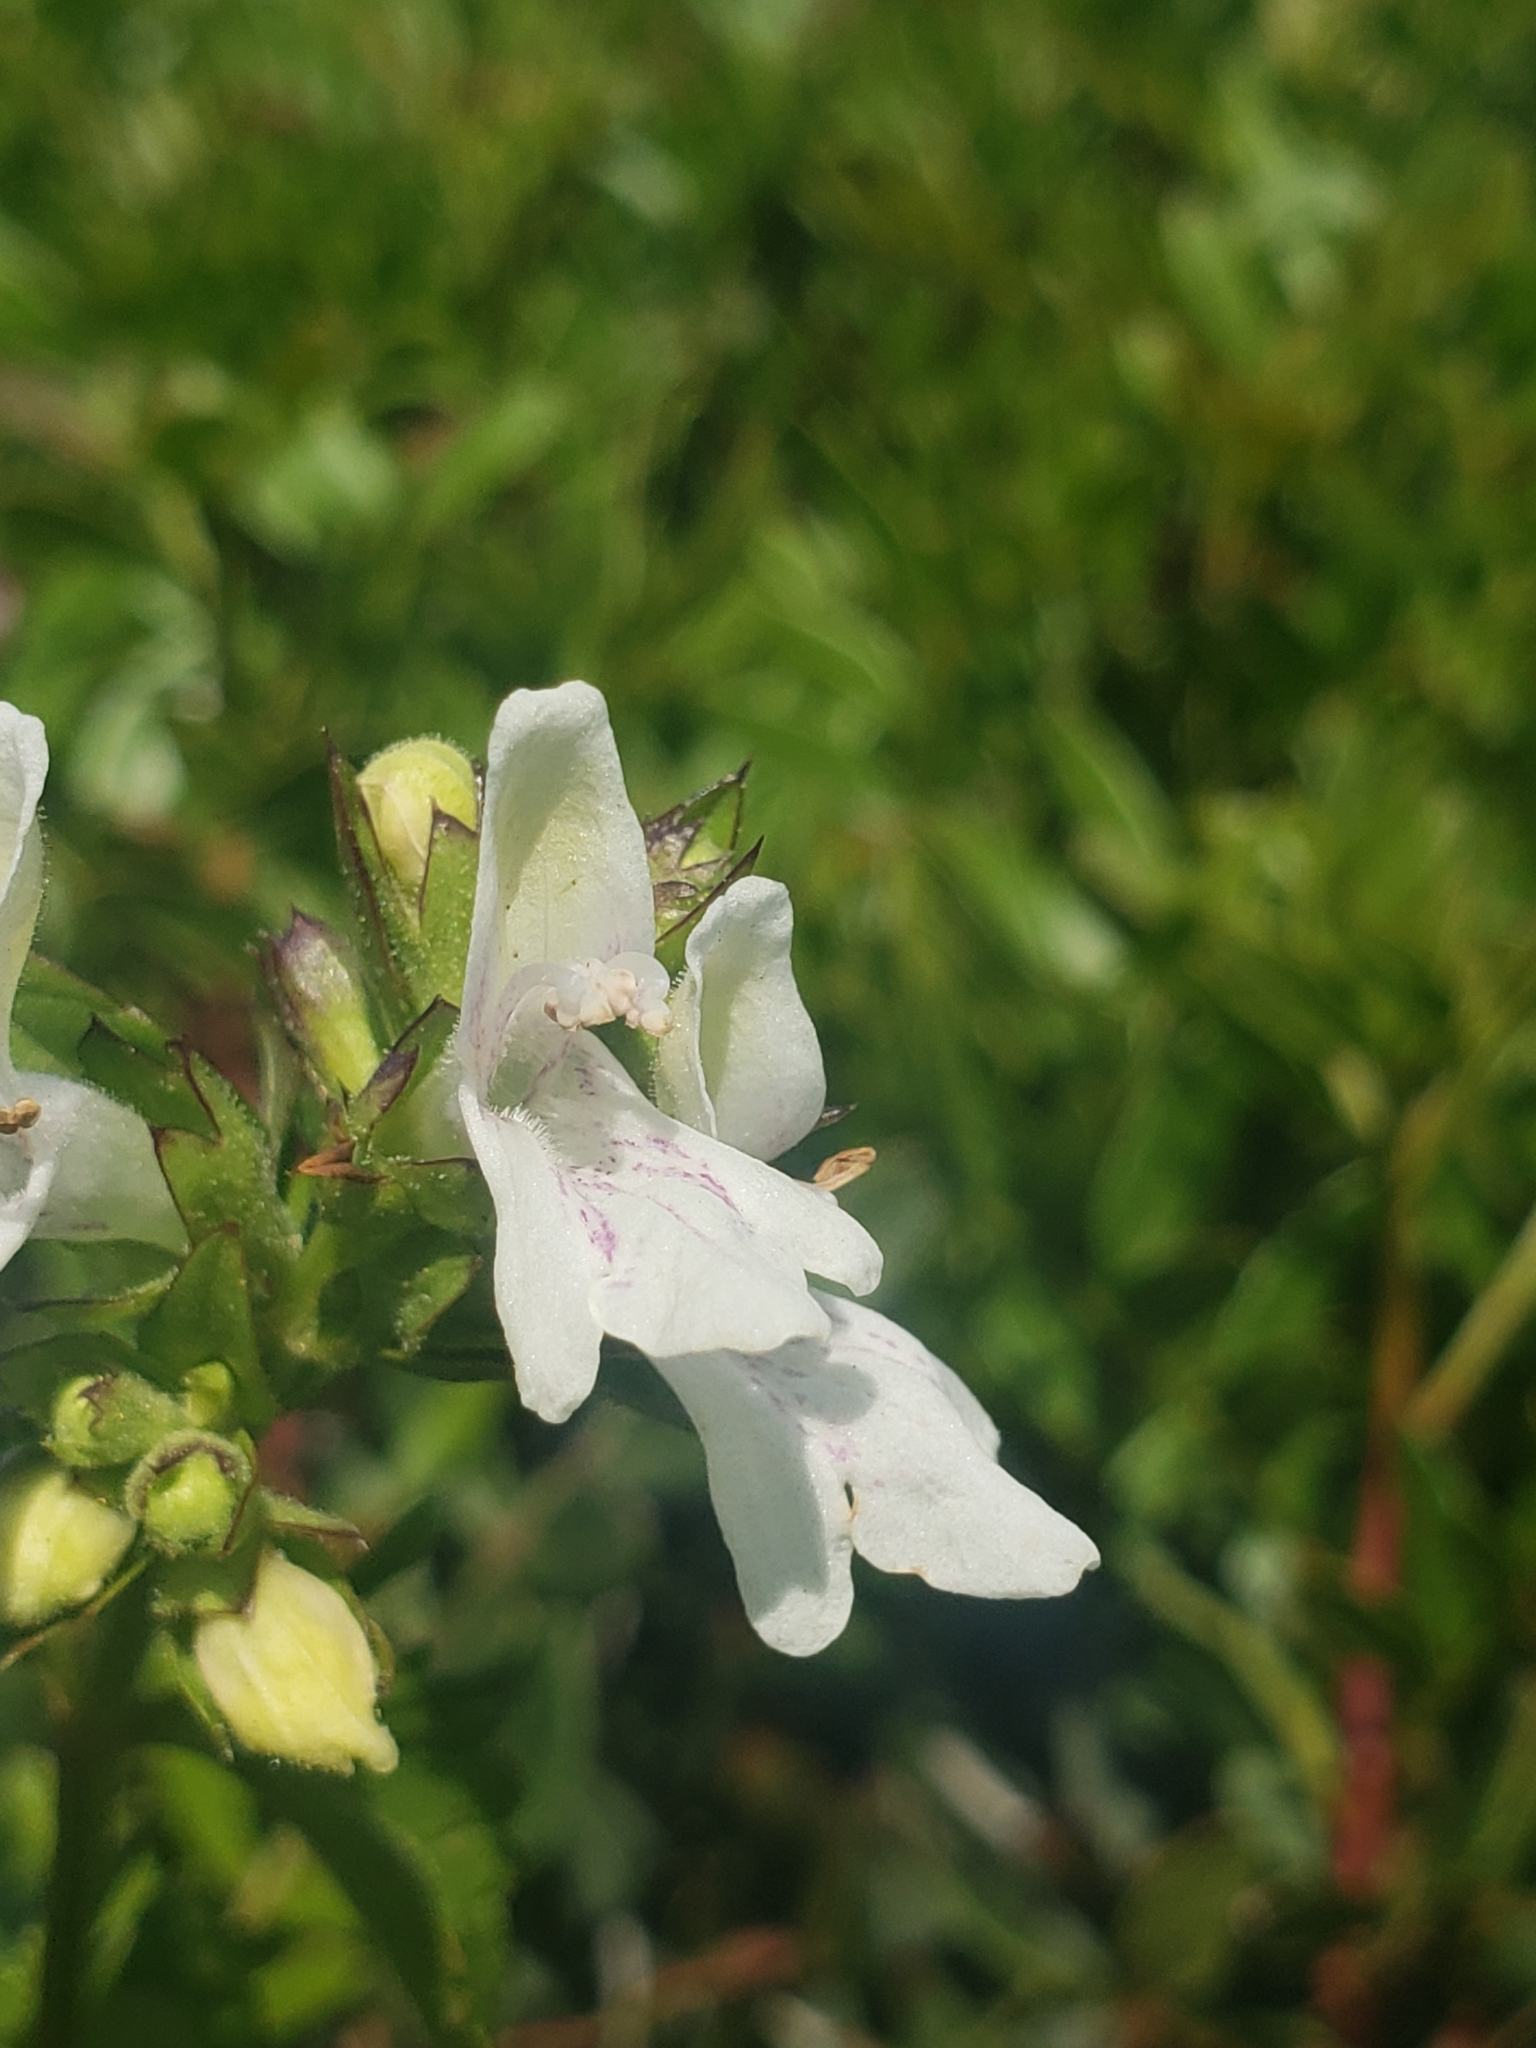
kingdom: Plantae
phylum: Tracheophyta
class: Magnoliopsida
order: Lamiales
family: Lamiaceae
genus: Prasium
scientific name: Prasium majus
